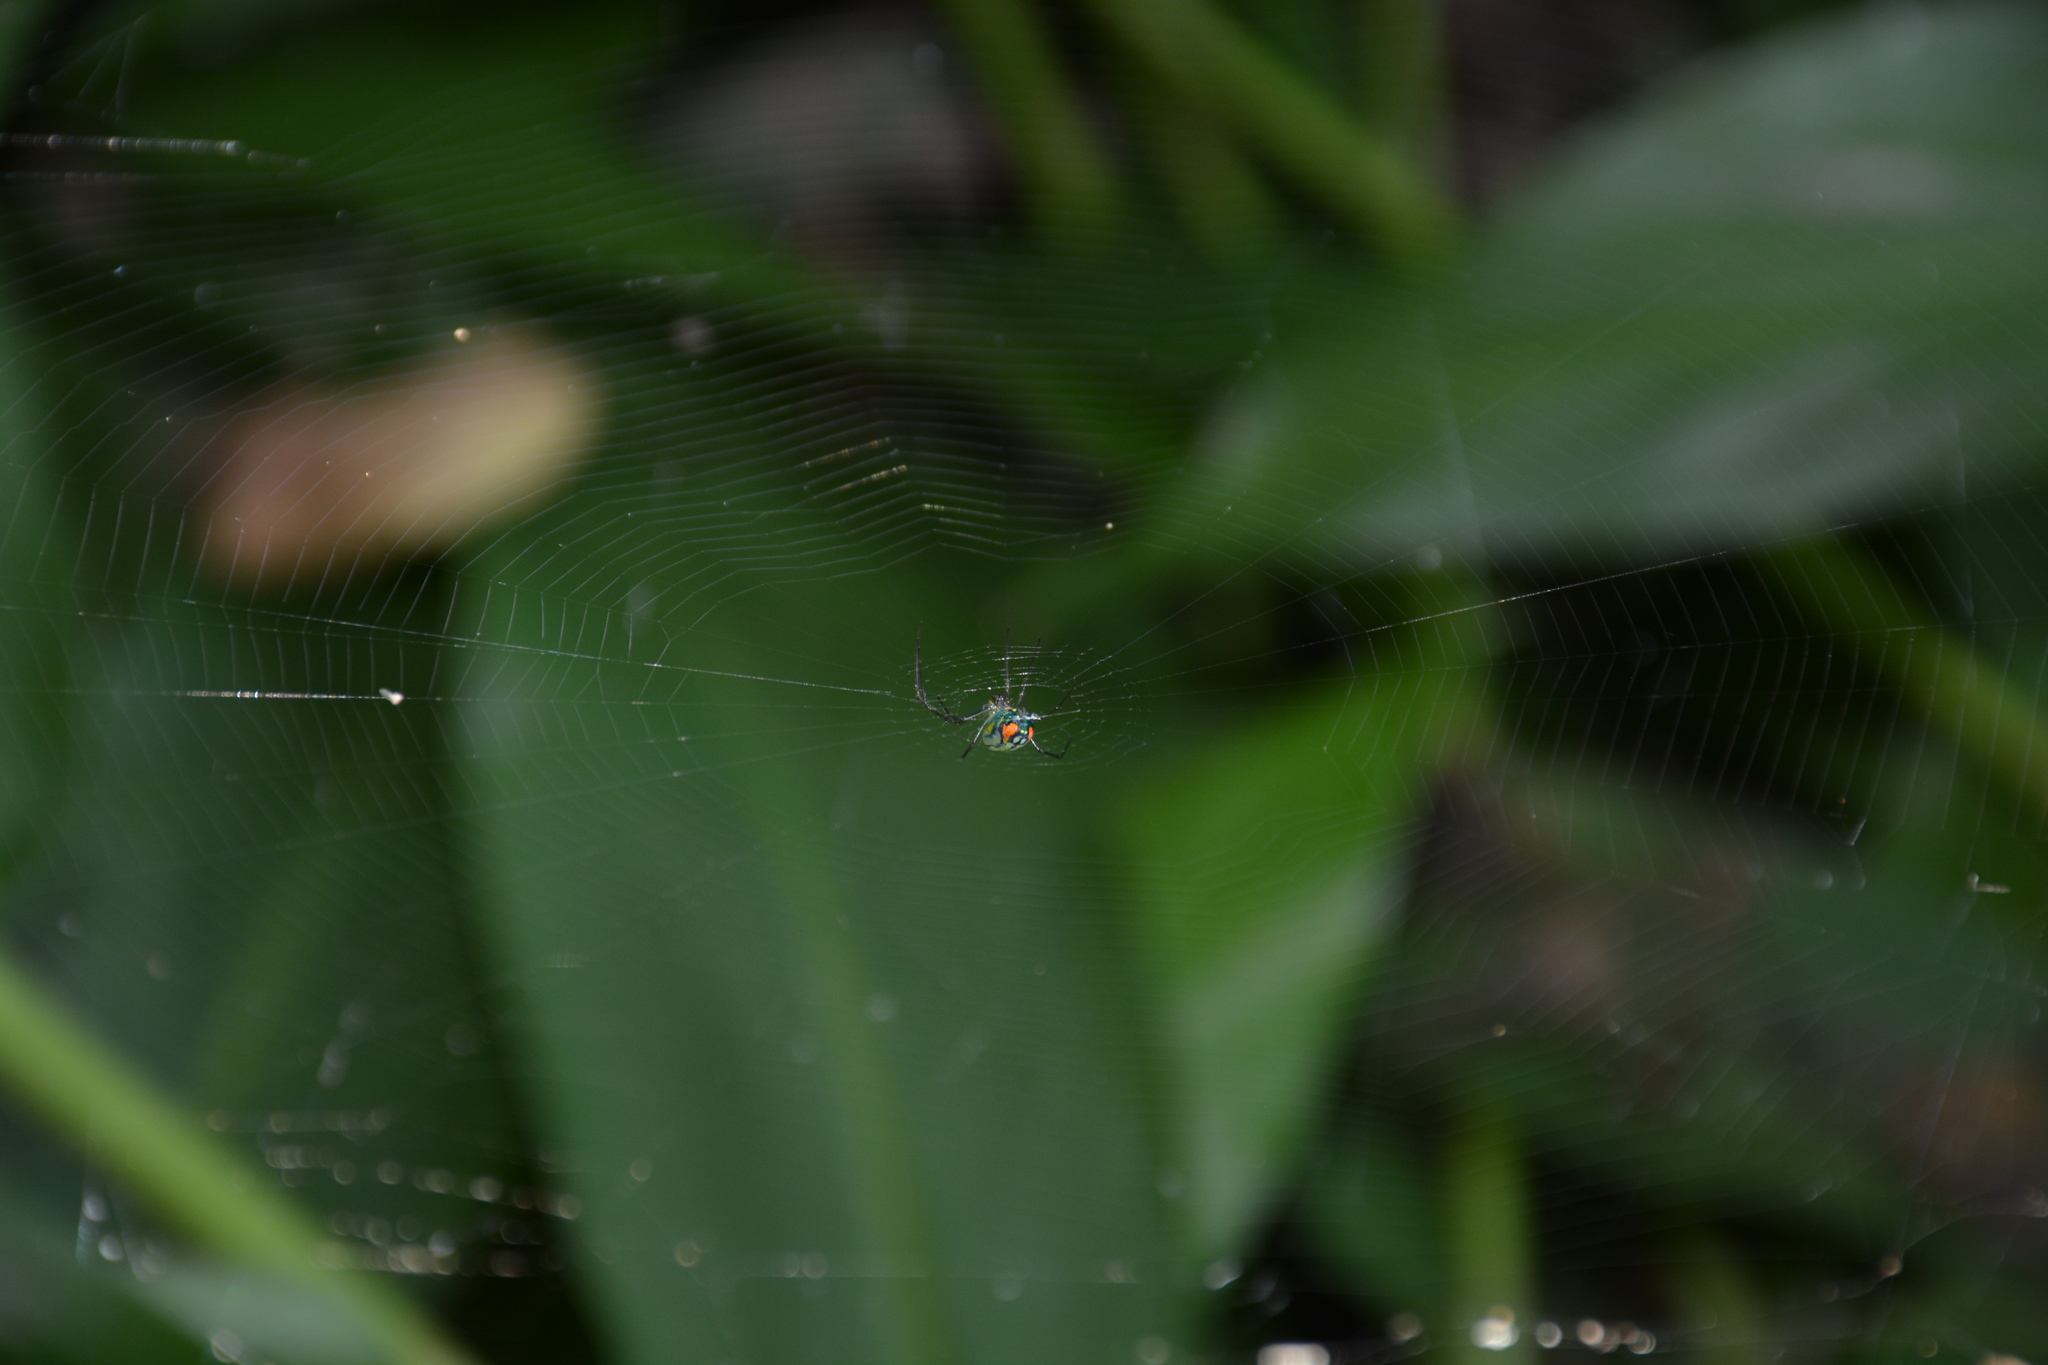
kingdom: Animalia
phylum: Arthropoda
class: Arachnida
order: Araneae
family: Tetragnathidae
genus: Leucauge
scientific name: Leucauge argyrobapta
